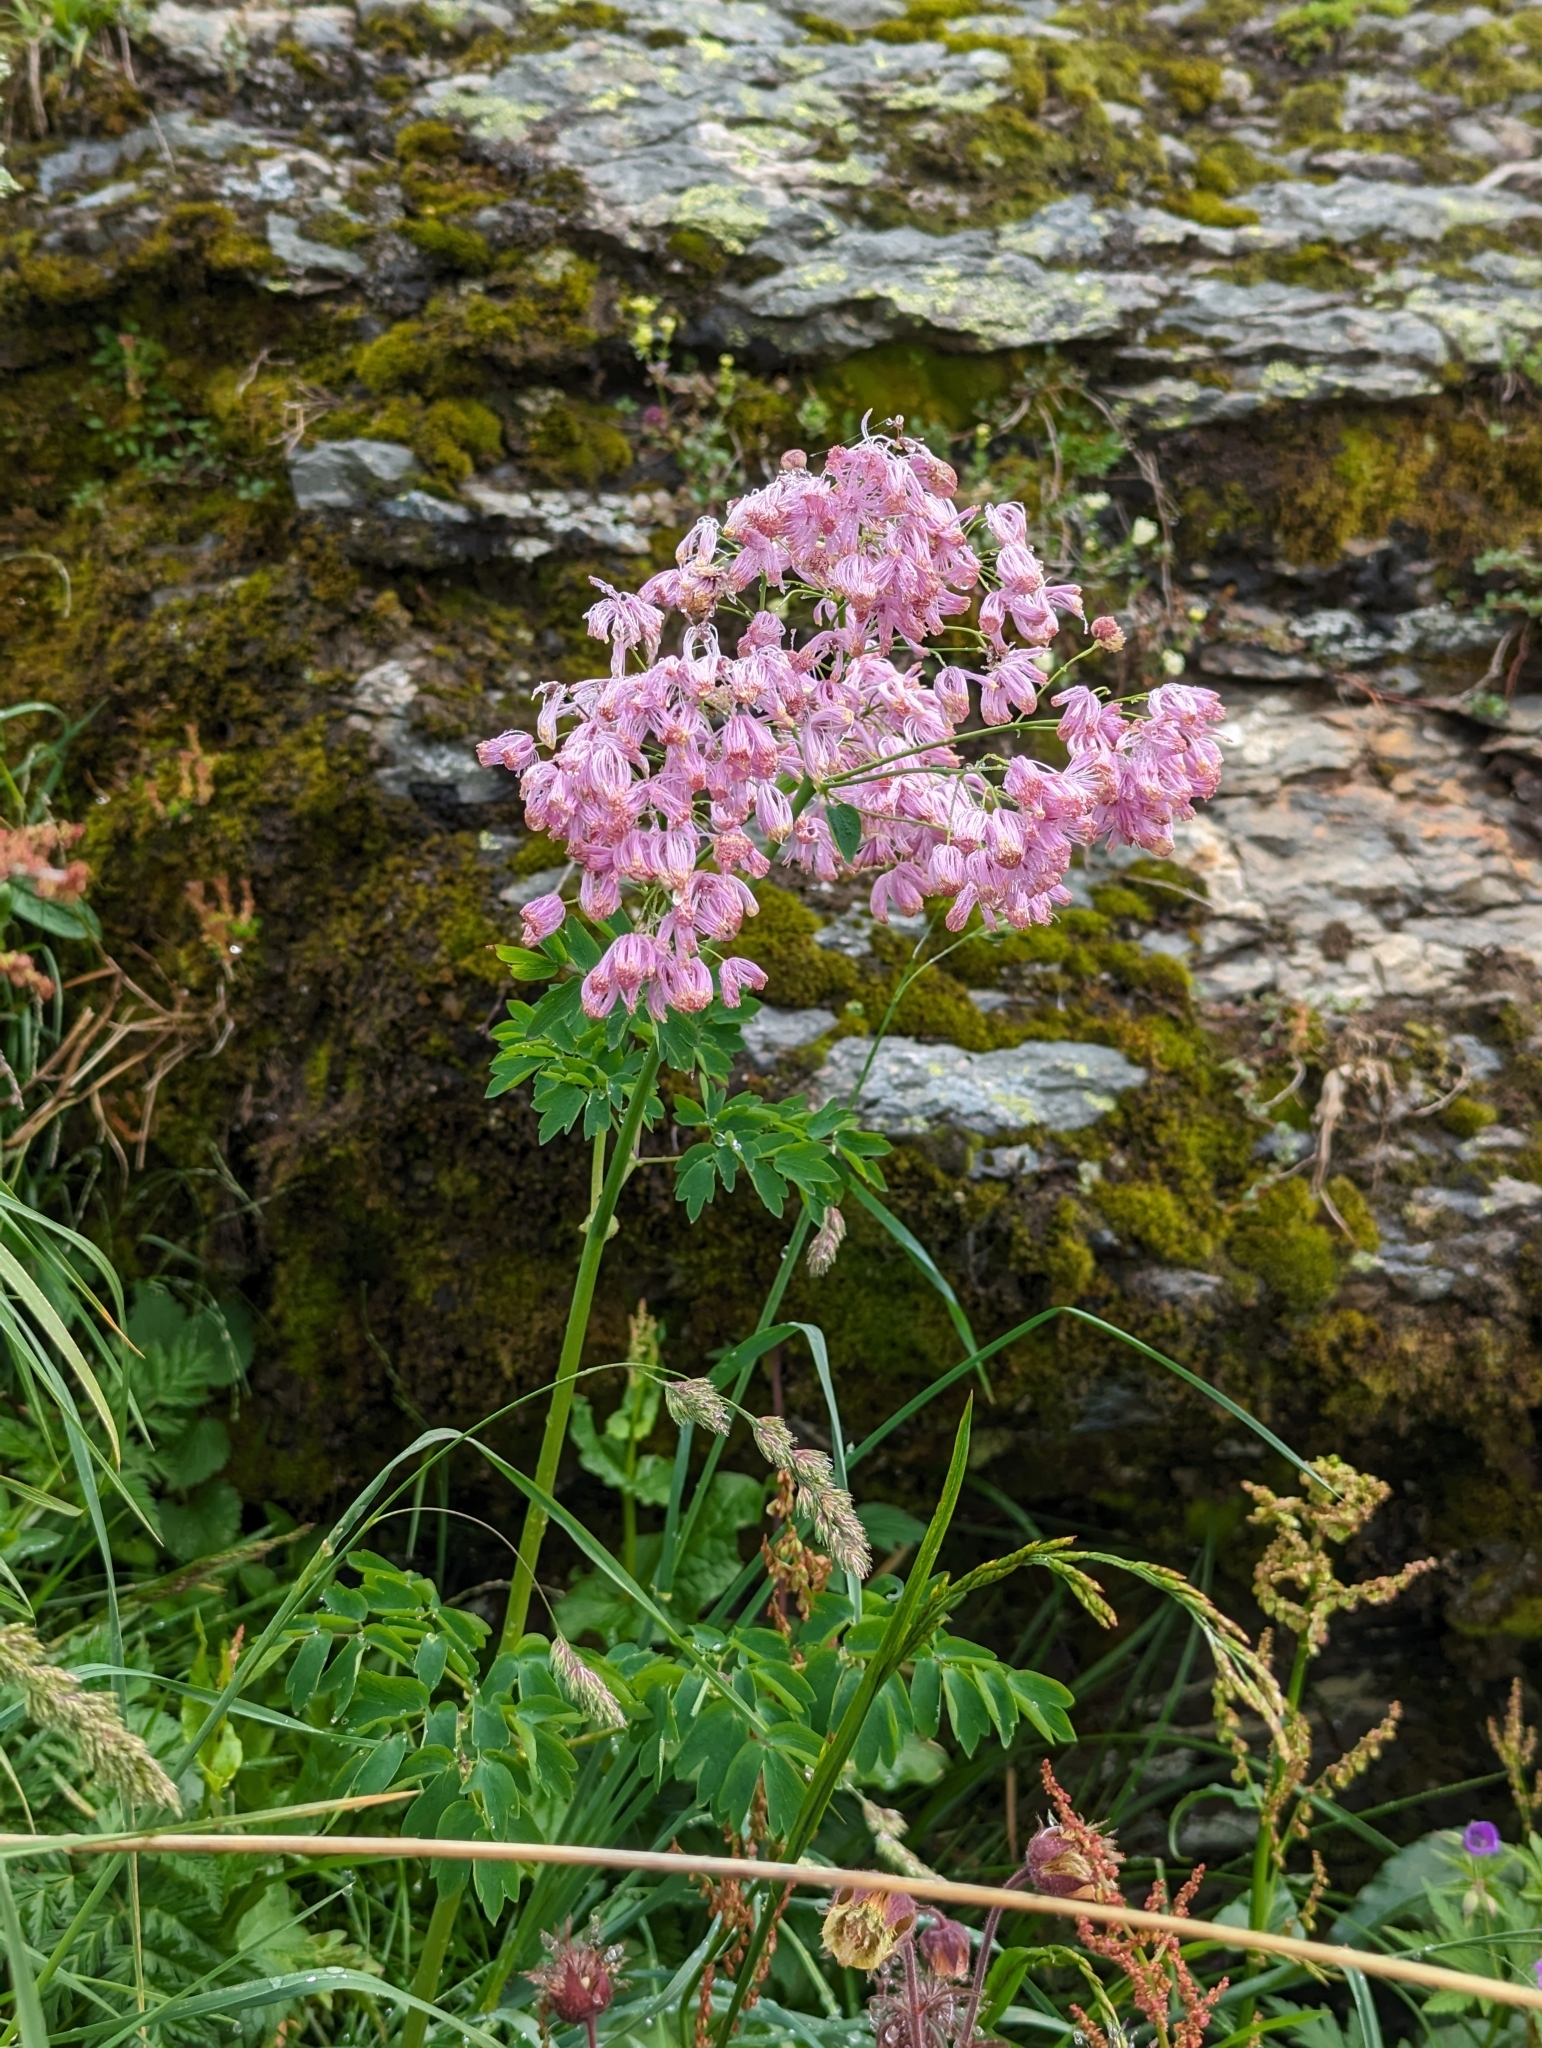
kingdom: Plantae
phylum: Tracheophyta
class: Magnoliopsida
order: Ranunculales
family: Ranunculaceae
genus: Thalictrum
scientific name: Thalictrum aquilegiifolium
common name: French meadow-rue
